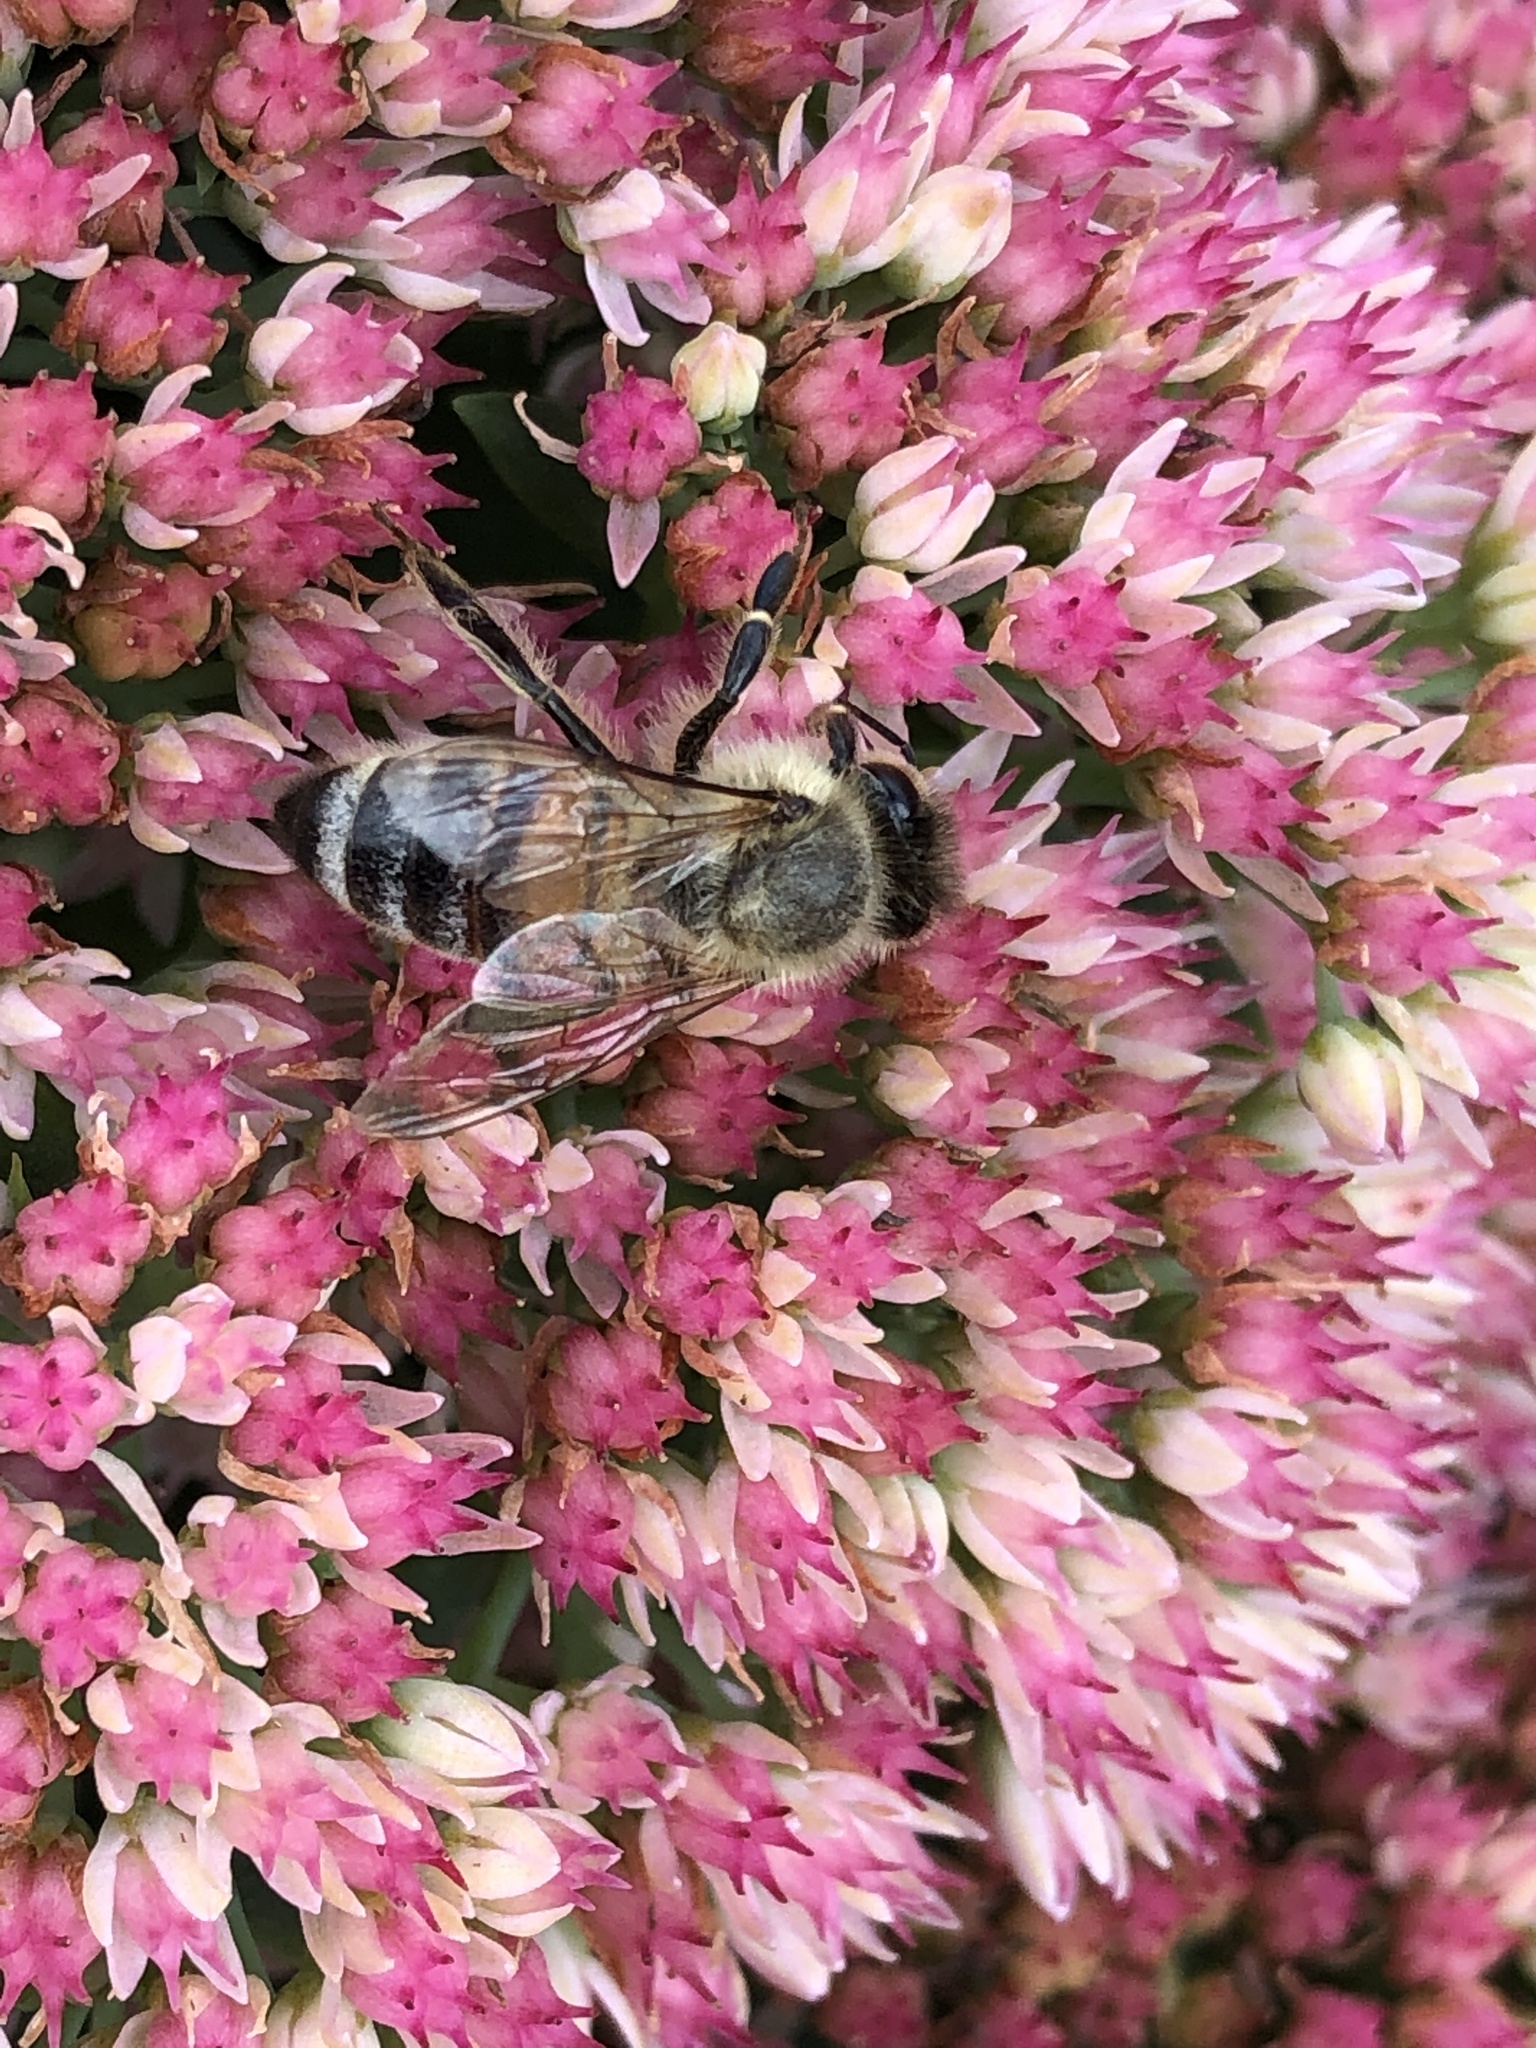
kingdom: Animalia
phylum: Arthropoda
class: Insecta
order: Hymenoptera
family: Apidae
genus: Apis
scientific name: Apis mellifera
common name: Honey bee
